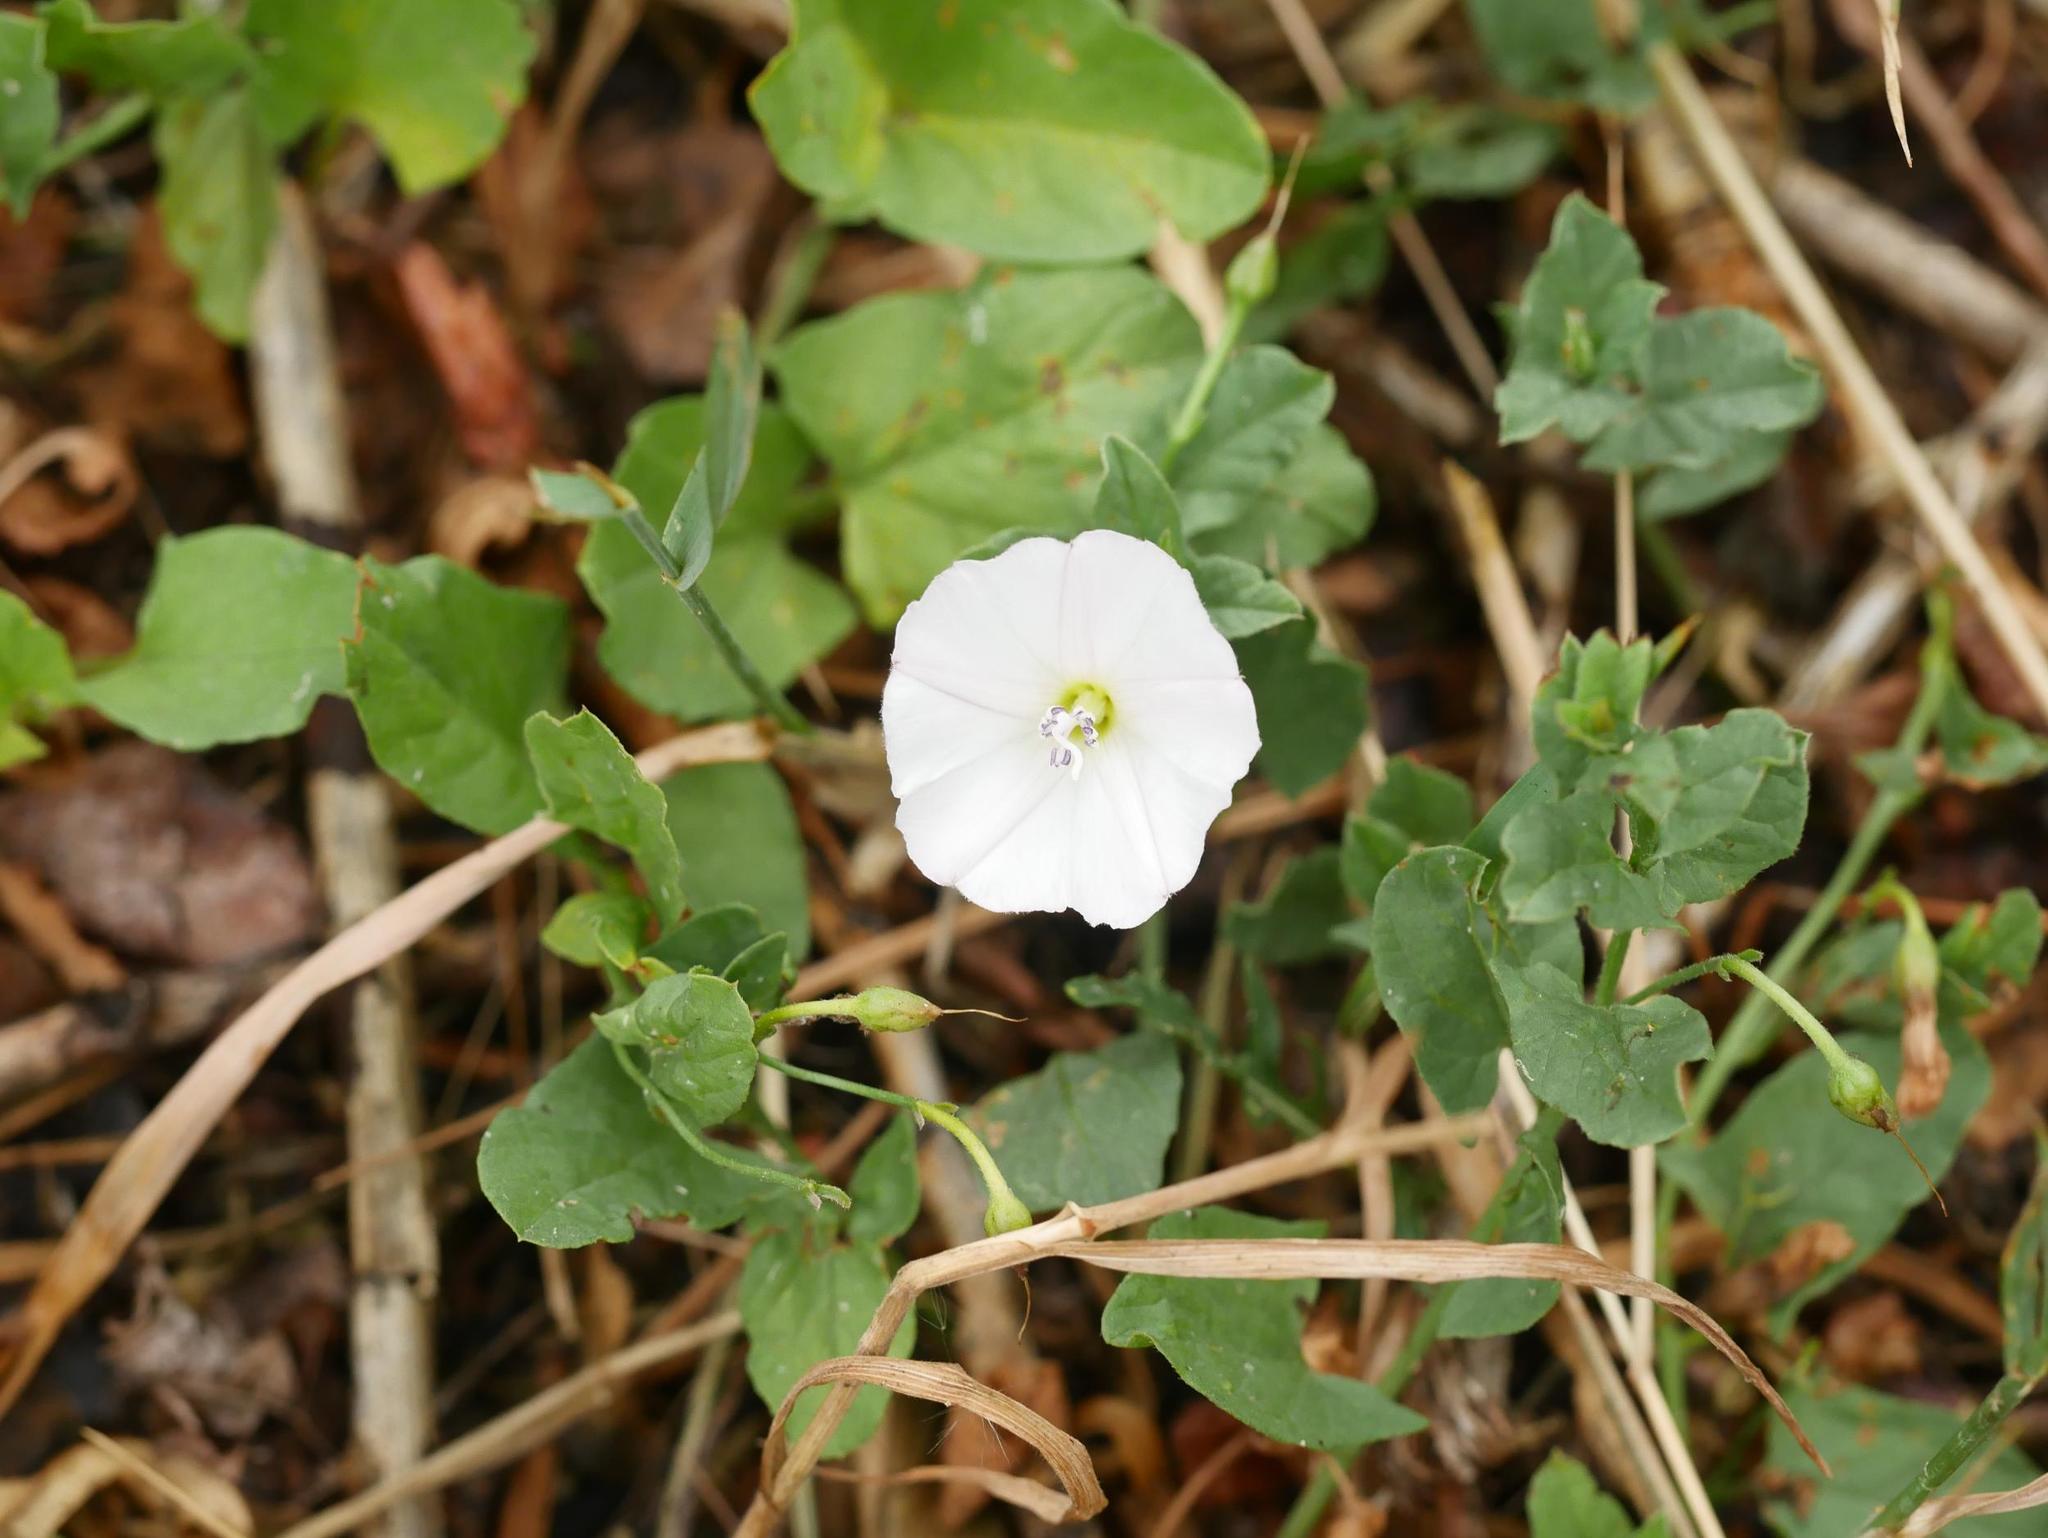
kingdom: Plantae
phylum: Tracheophyta
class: Magnoliopsida
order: Solanales
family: Convolvulaceae
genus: Convolvulus
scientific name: Convolvulus arvensis
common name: Field bindweed
